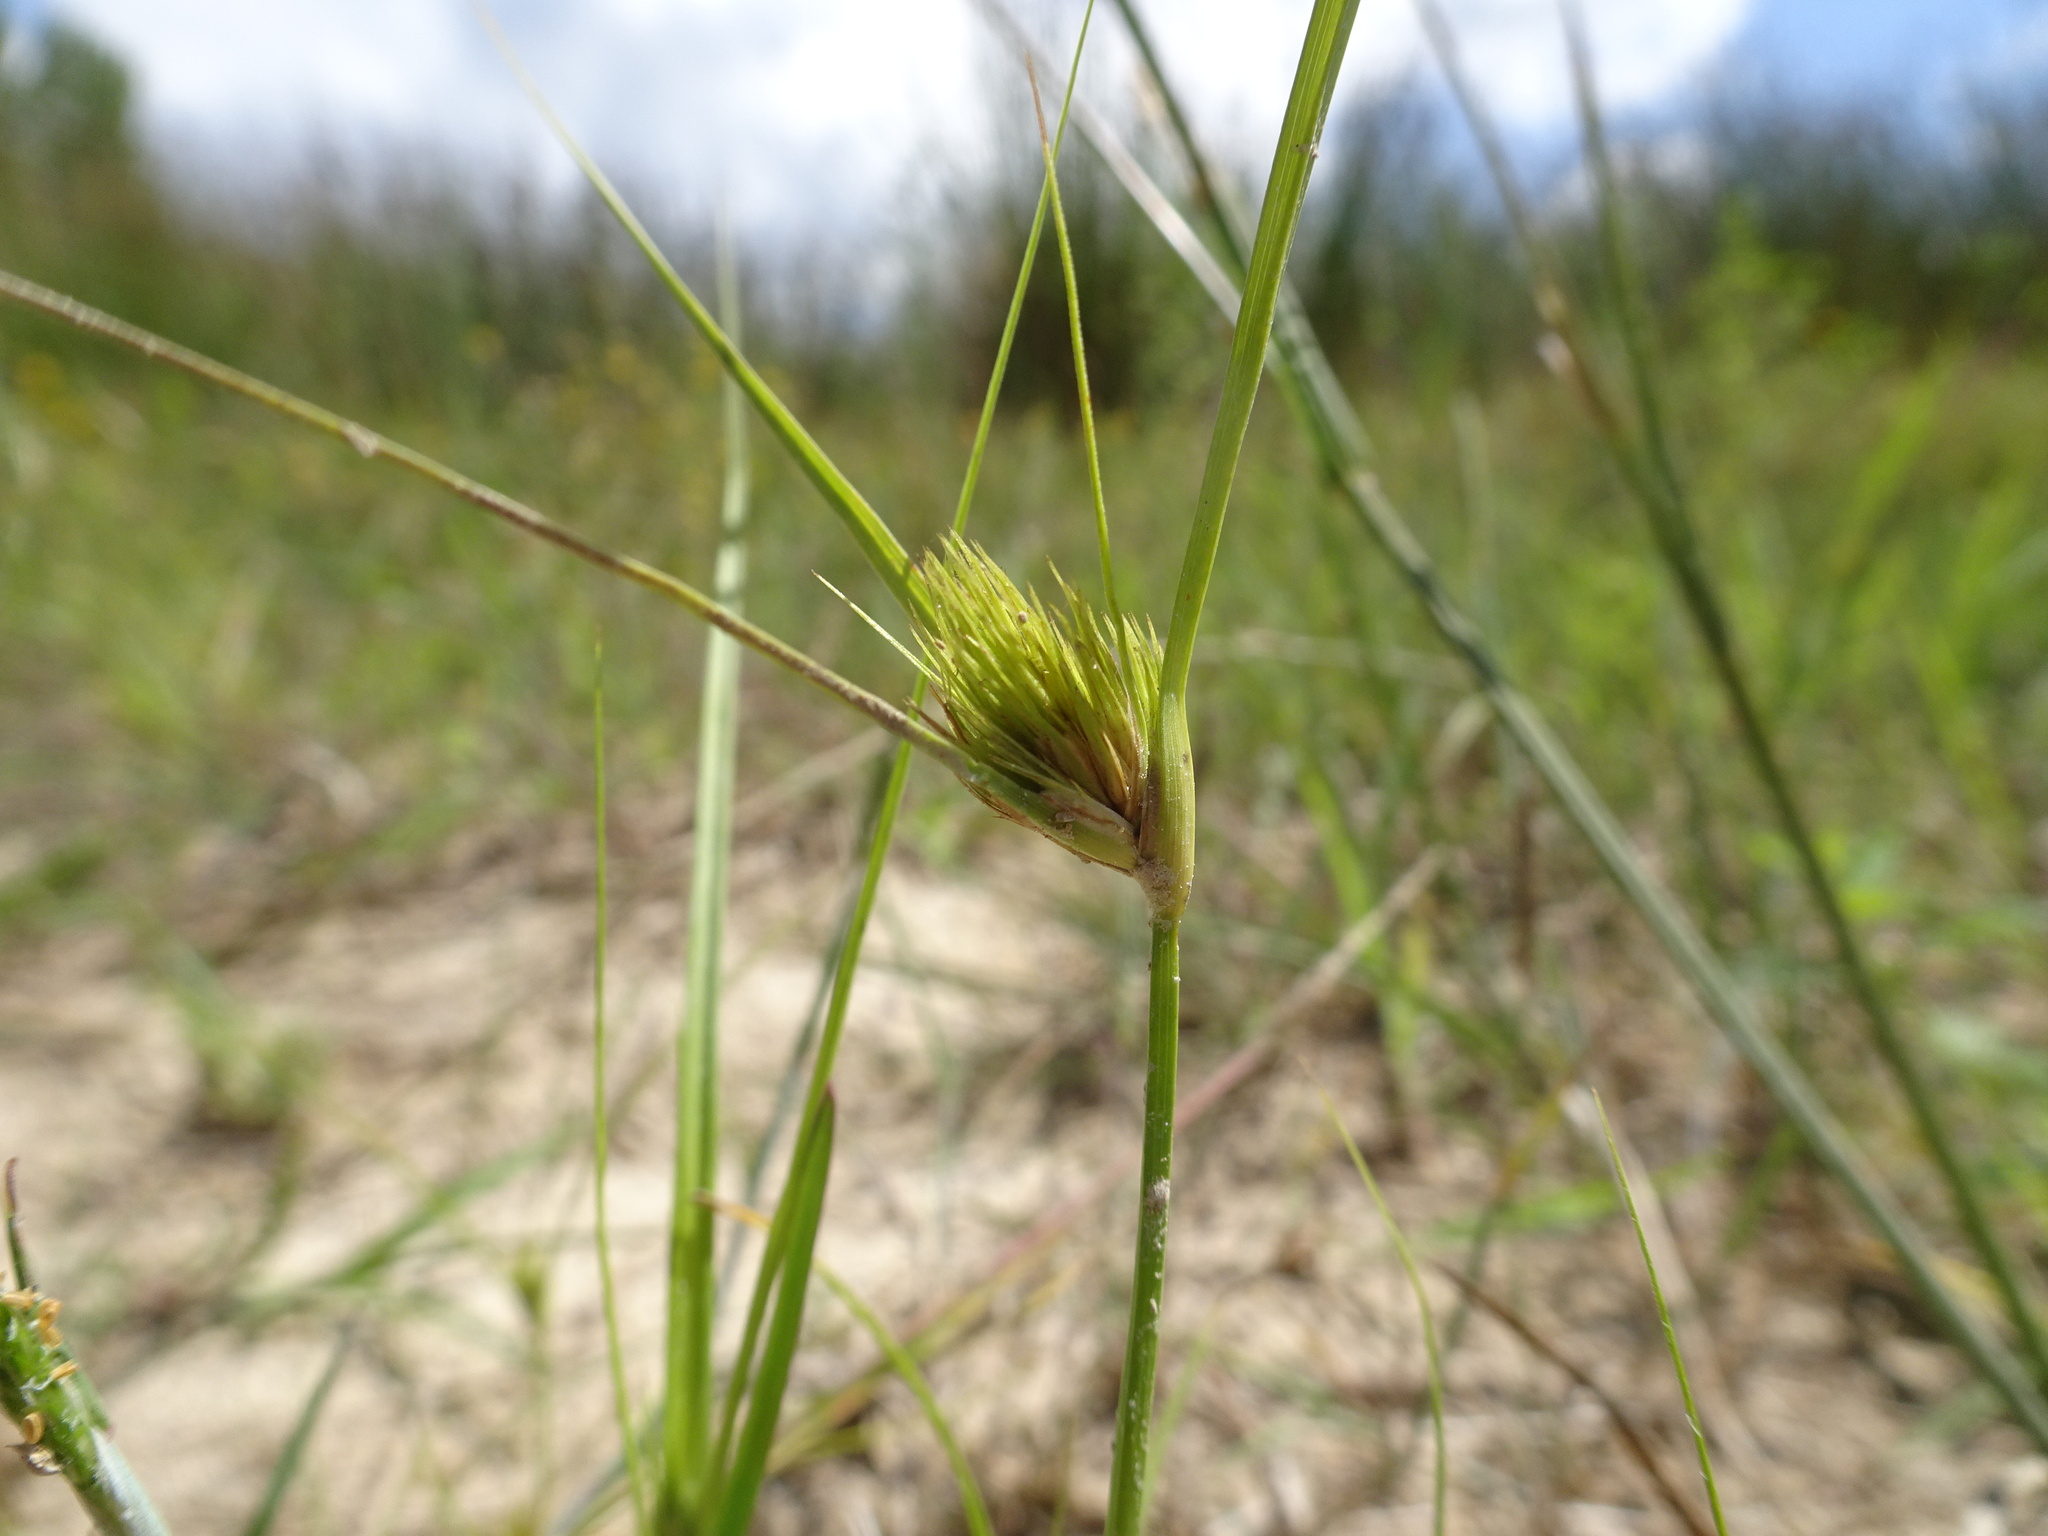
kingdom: Plantae
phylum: Tracheophyta
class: Liliopsida
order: Poales
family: Cyperaceae
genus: Carex
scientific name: Carex bohemica
